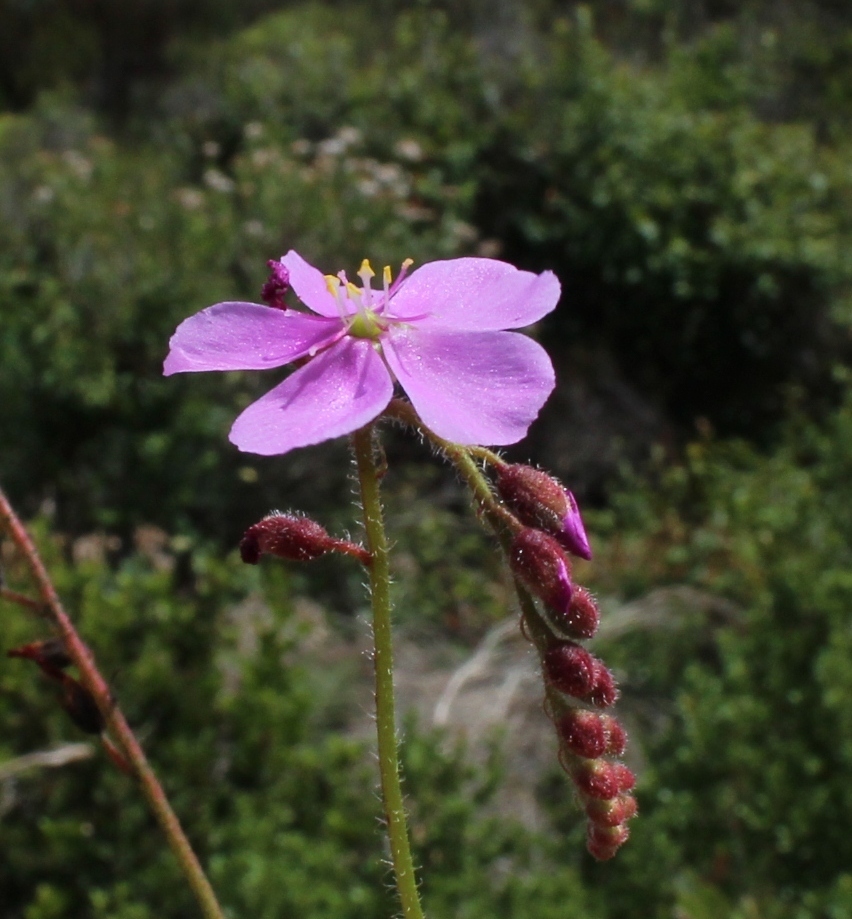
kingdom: Plantae
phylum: Tracheophyta
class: Magnoliopsida
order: Caryophyllales
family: Droseraceae
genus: Drosera
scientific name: Drosera capensis
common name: Cape sundew
